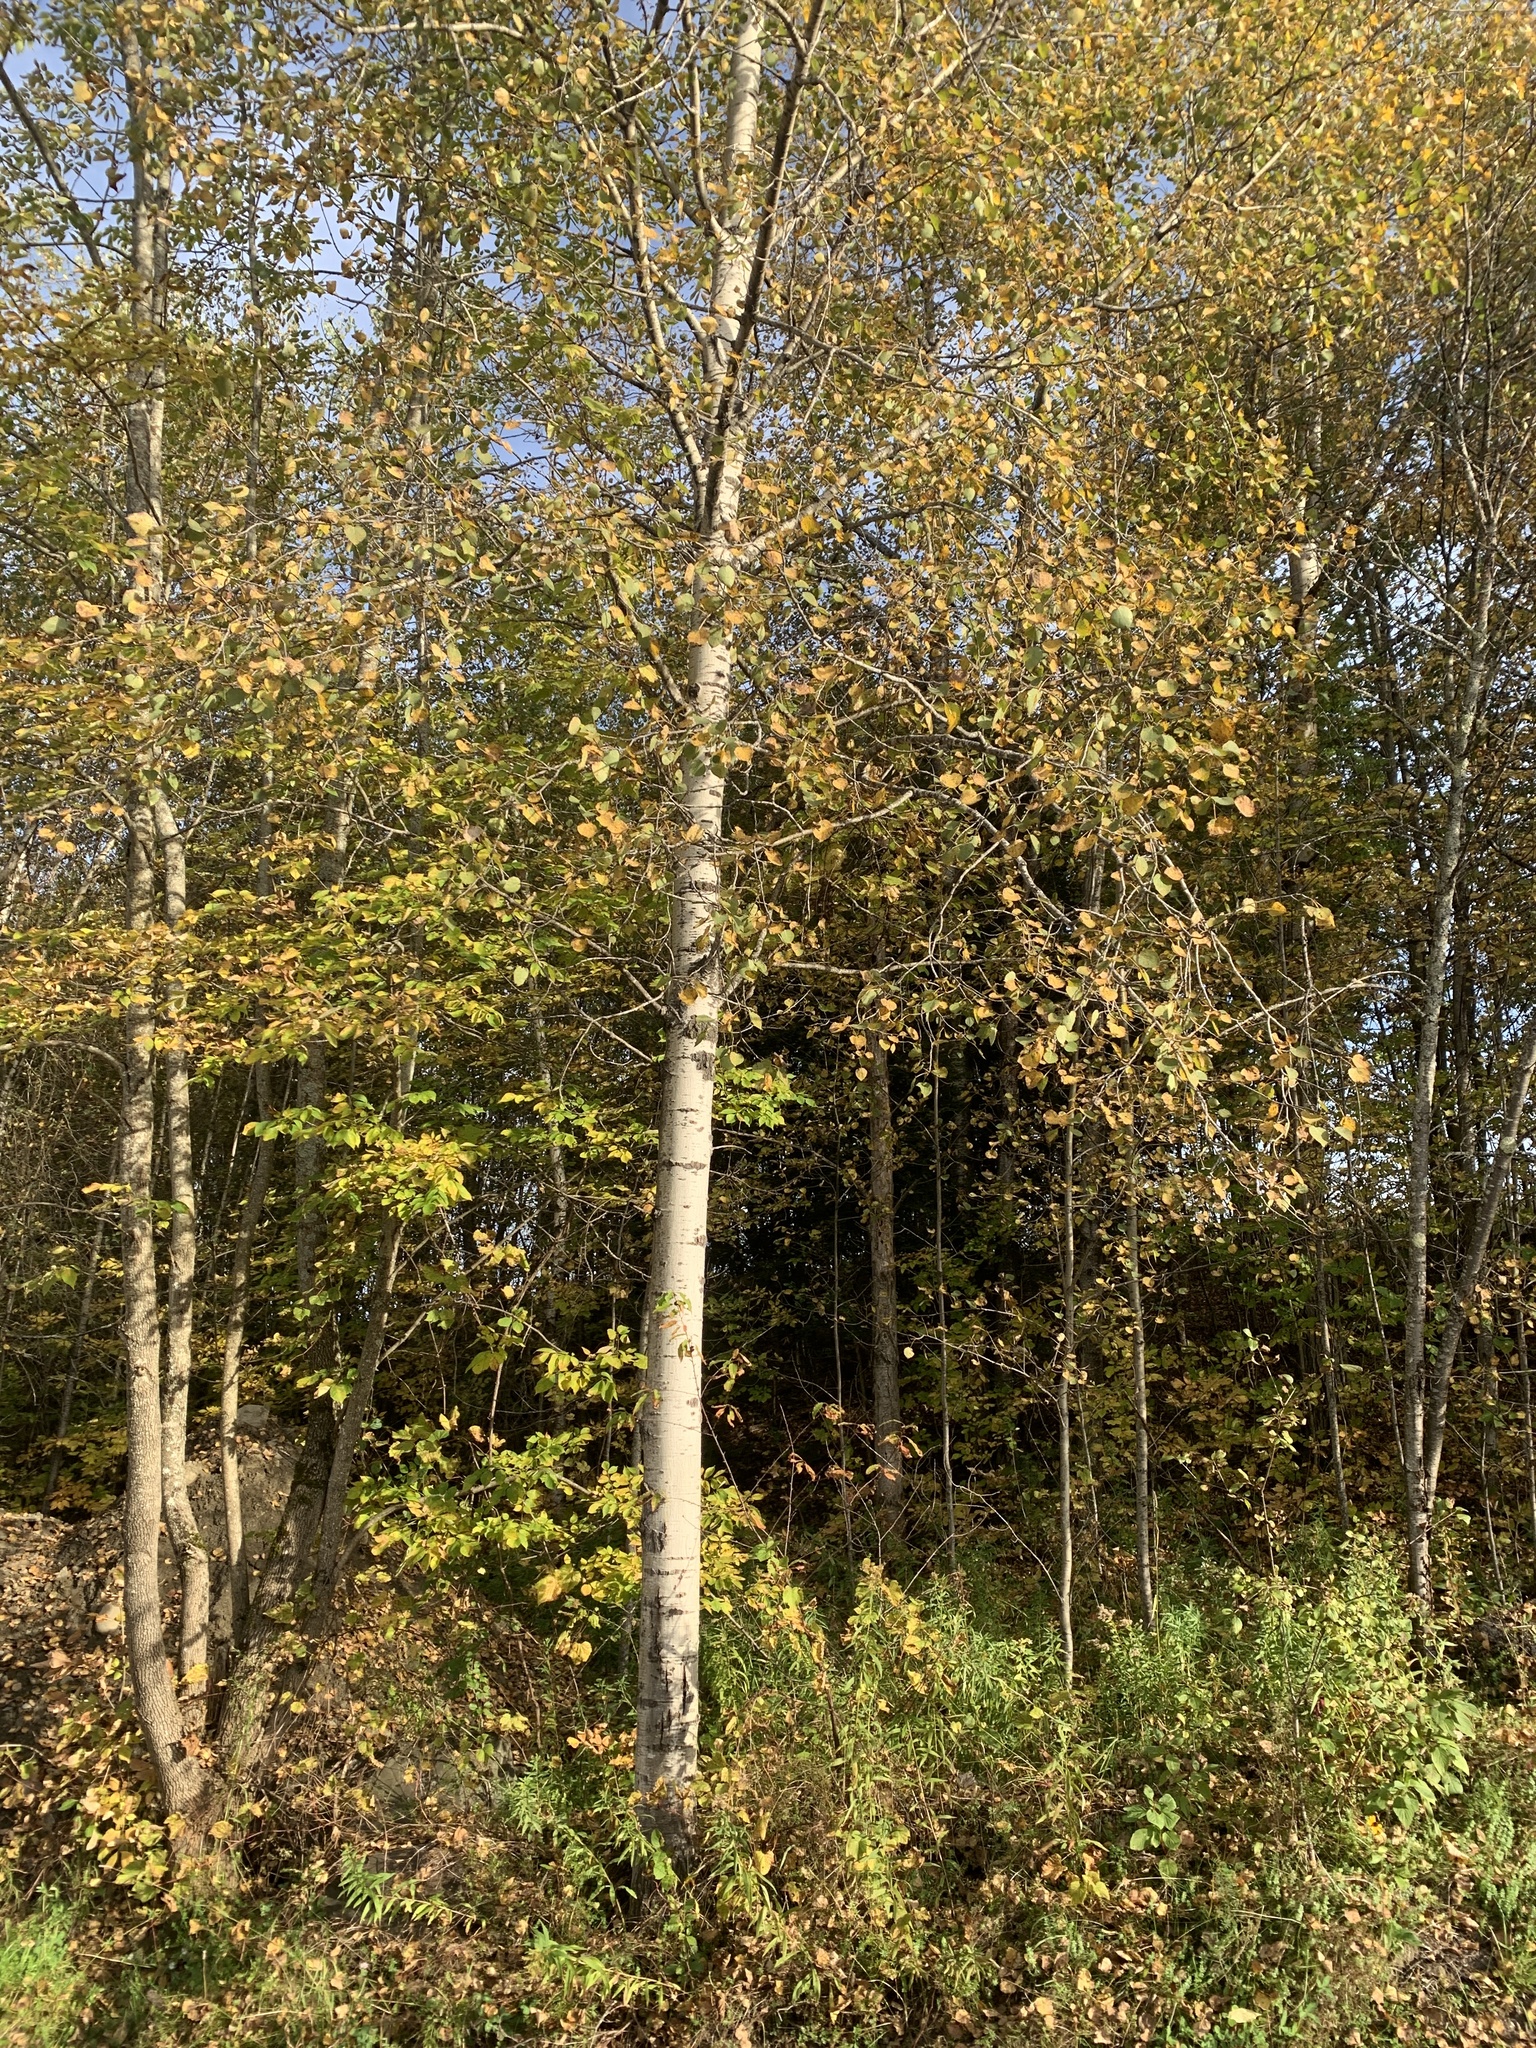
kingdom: Plantae
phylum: Tracheophyta
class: Magnoliopsida
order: Malpighiales
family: Salicaceae
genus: Populus
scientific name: Populus tremuloides
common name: Quaking aspen
